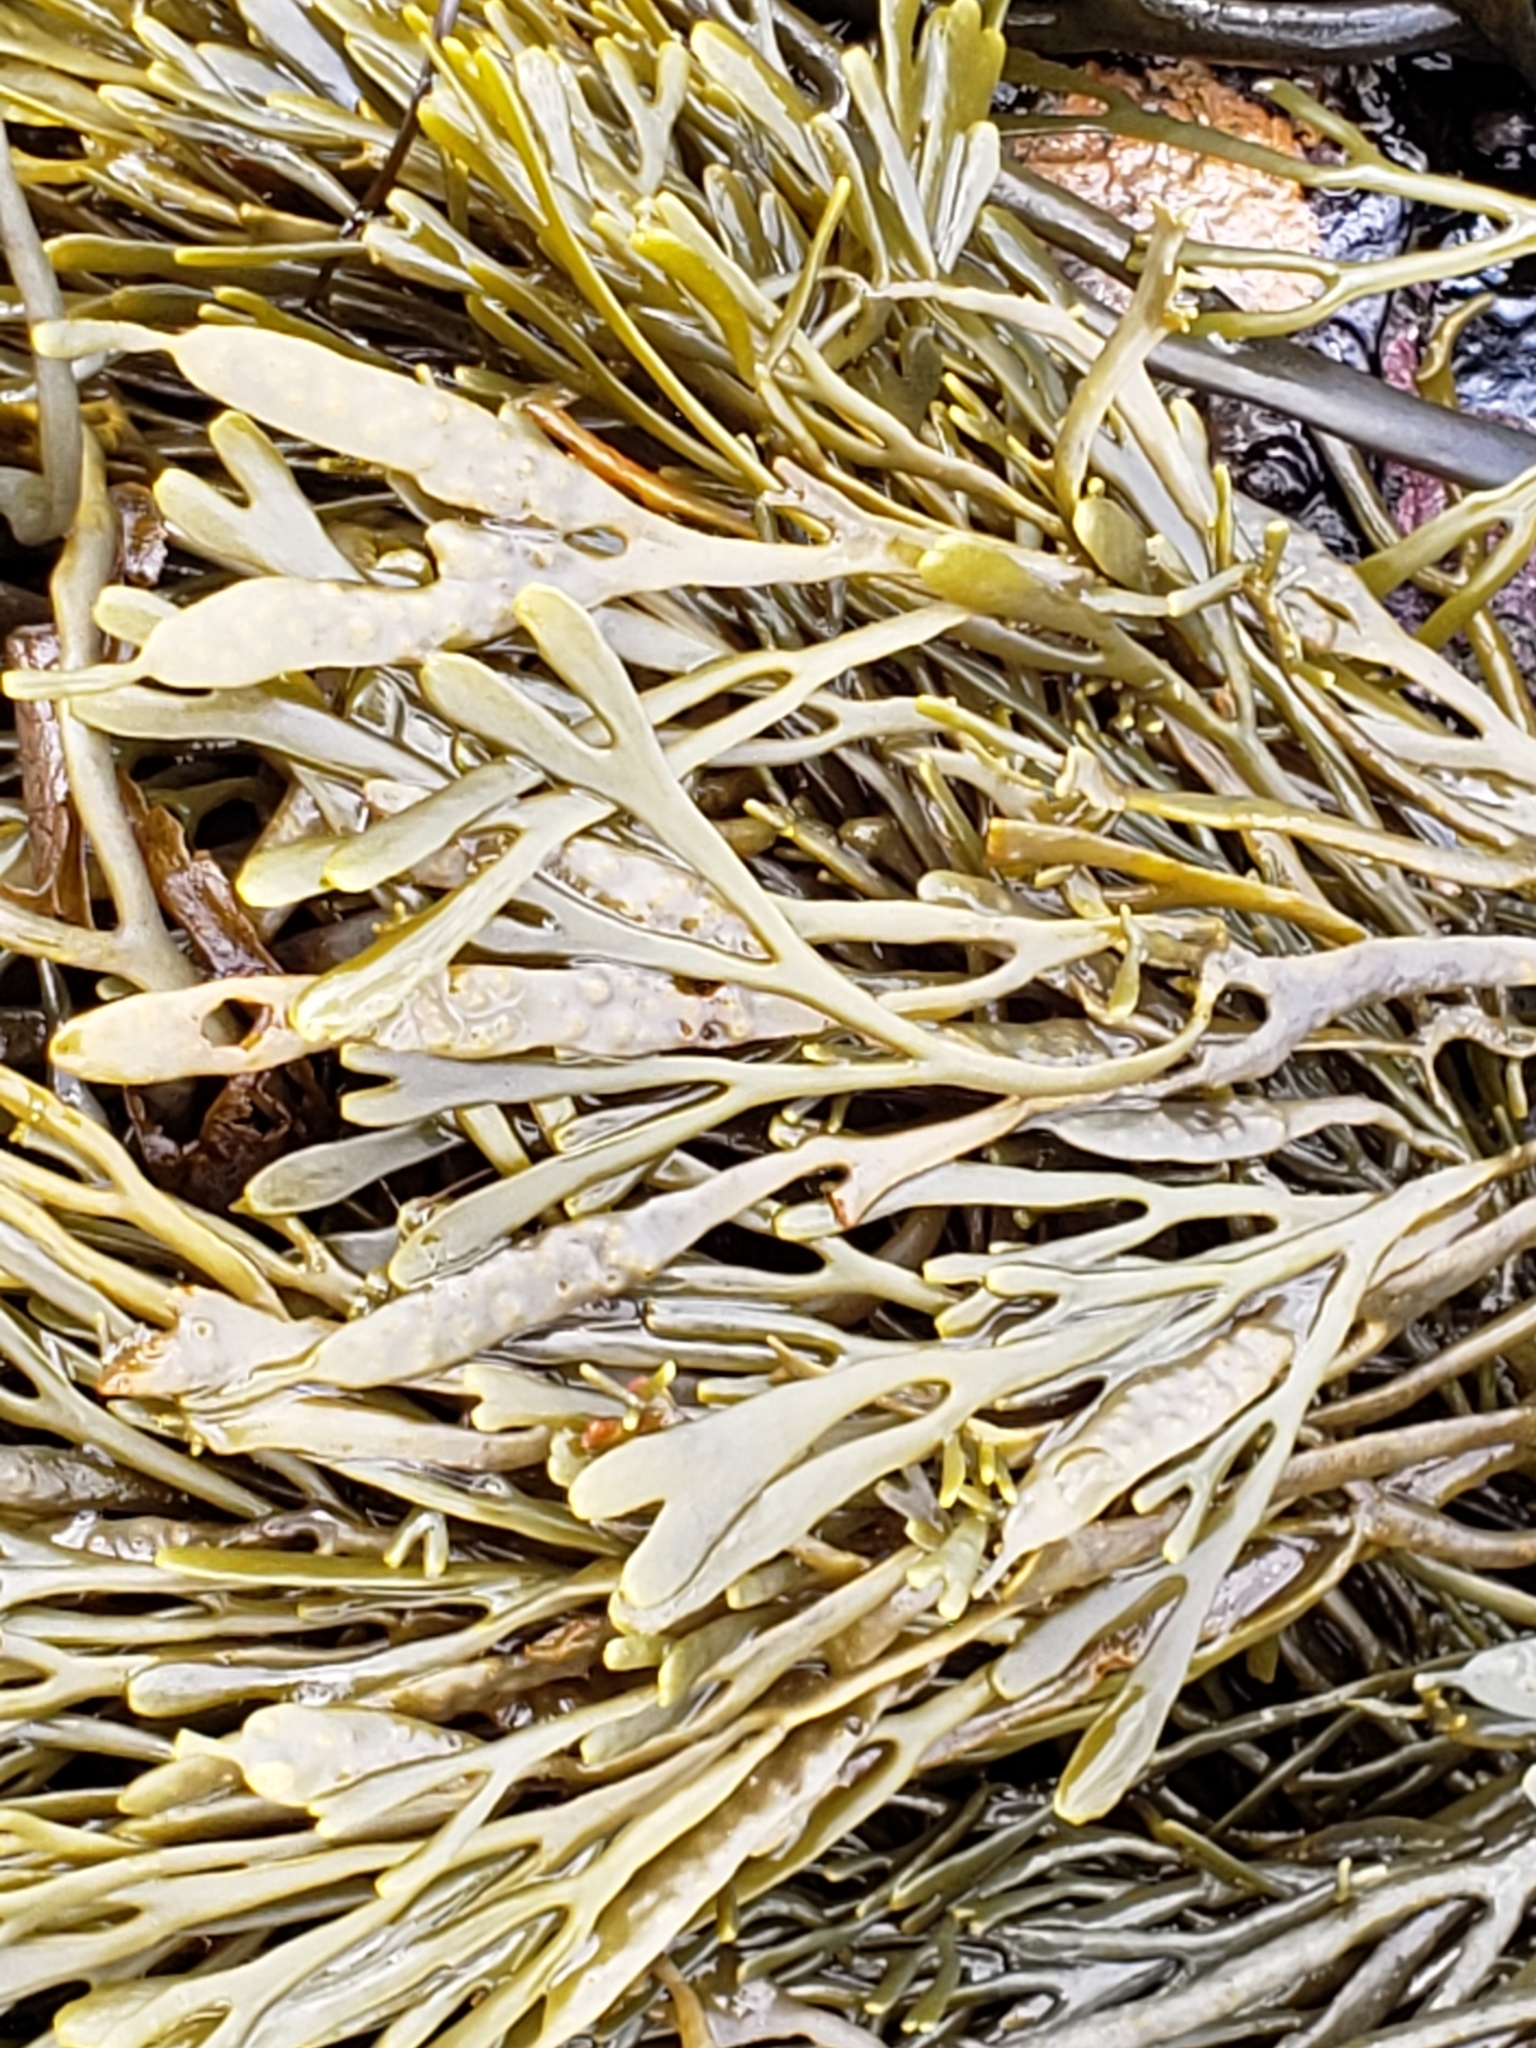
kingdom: Chromista
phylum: Ochrophyta
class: Phaeophyceae
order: Fucales
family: Fucaceae
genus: Silvetia
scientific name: Silvetia
